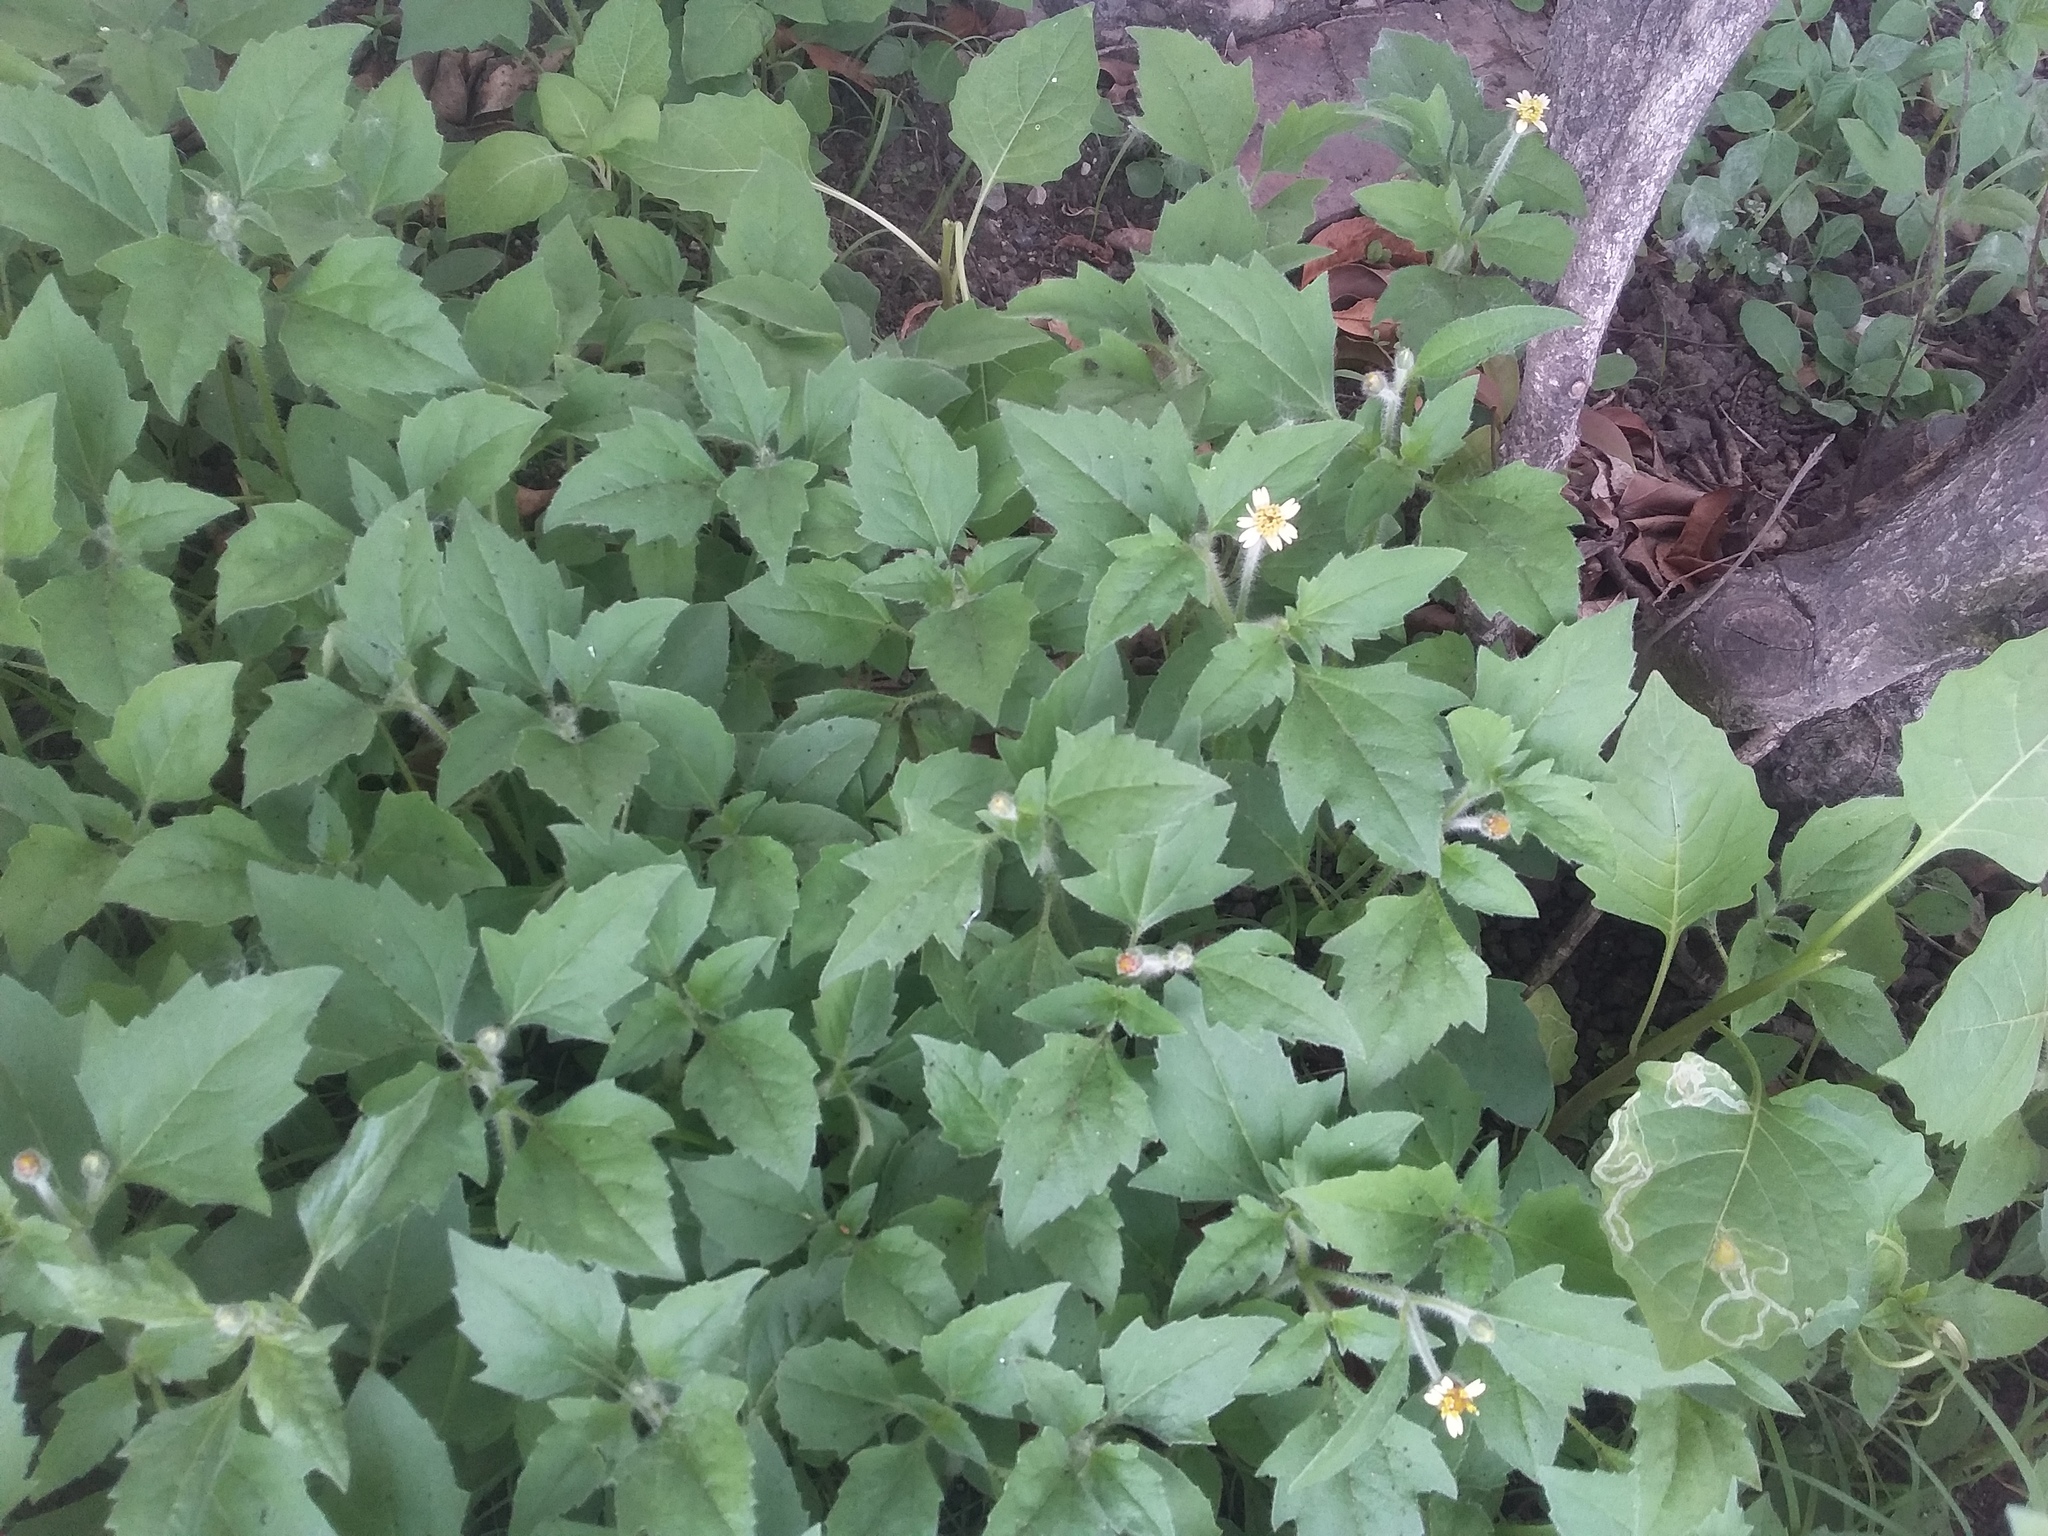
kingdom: Plantae
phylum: Tracheophyta
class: Magnoliopsida
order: Asterales
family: Asteraceae
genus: Tridax
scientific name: Tridax procumbens
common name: Coatbuttons
